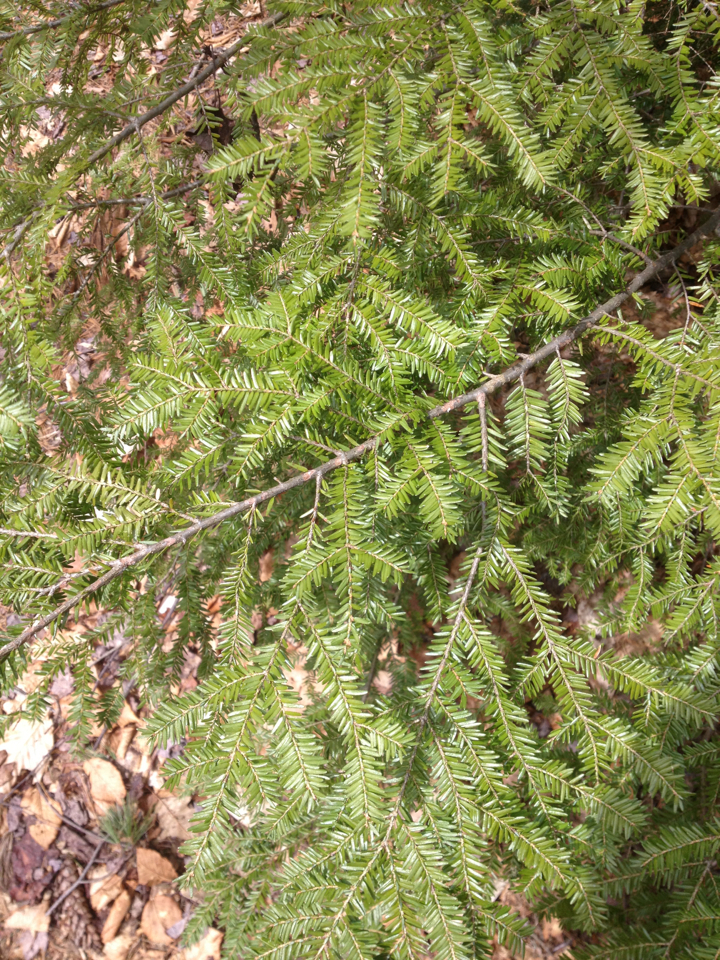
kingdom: Plantae
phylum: Tracheophyta
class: Pinopsida
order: Pinales
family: Pinaceae
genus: Tsuga
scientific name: Tsuga canadensis
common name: Eastern hemlock
